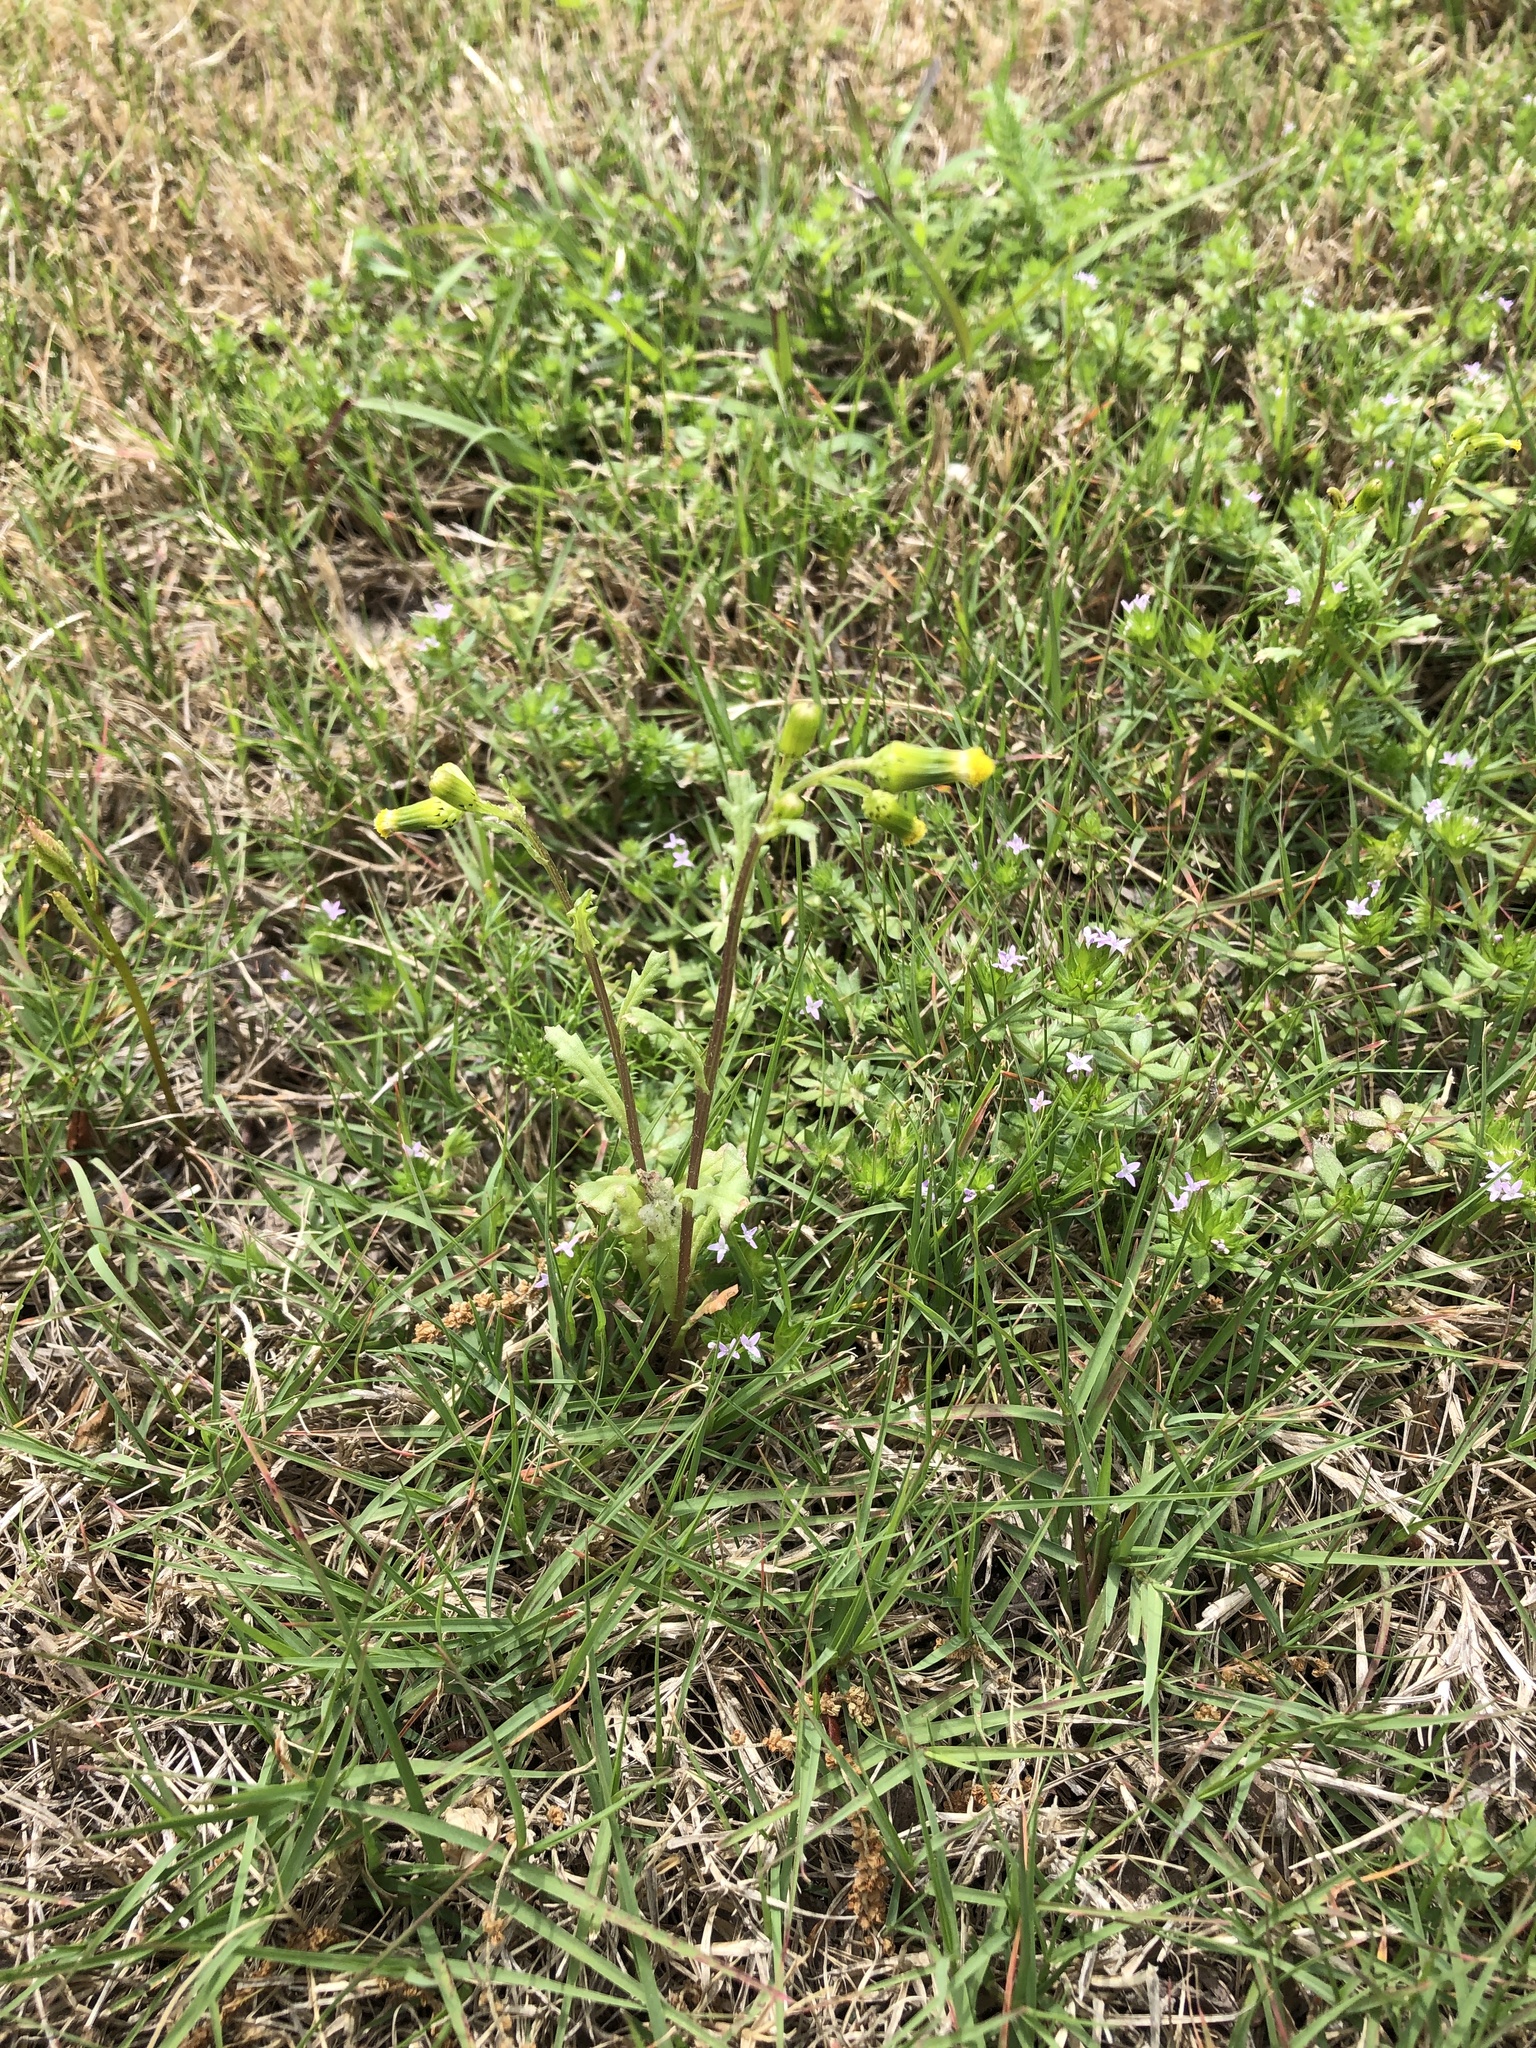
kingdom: Plantae
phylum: Tracheophyta
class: Magnoliopsida
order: Asterales
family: Asteraceae
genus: Senecio
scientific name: Senecio vulgaris
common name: Old-man-in-the-spring
